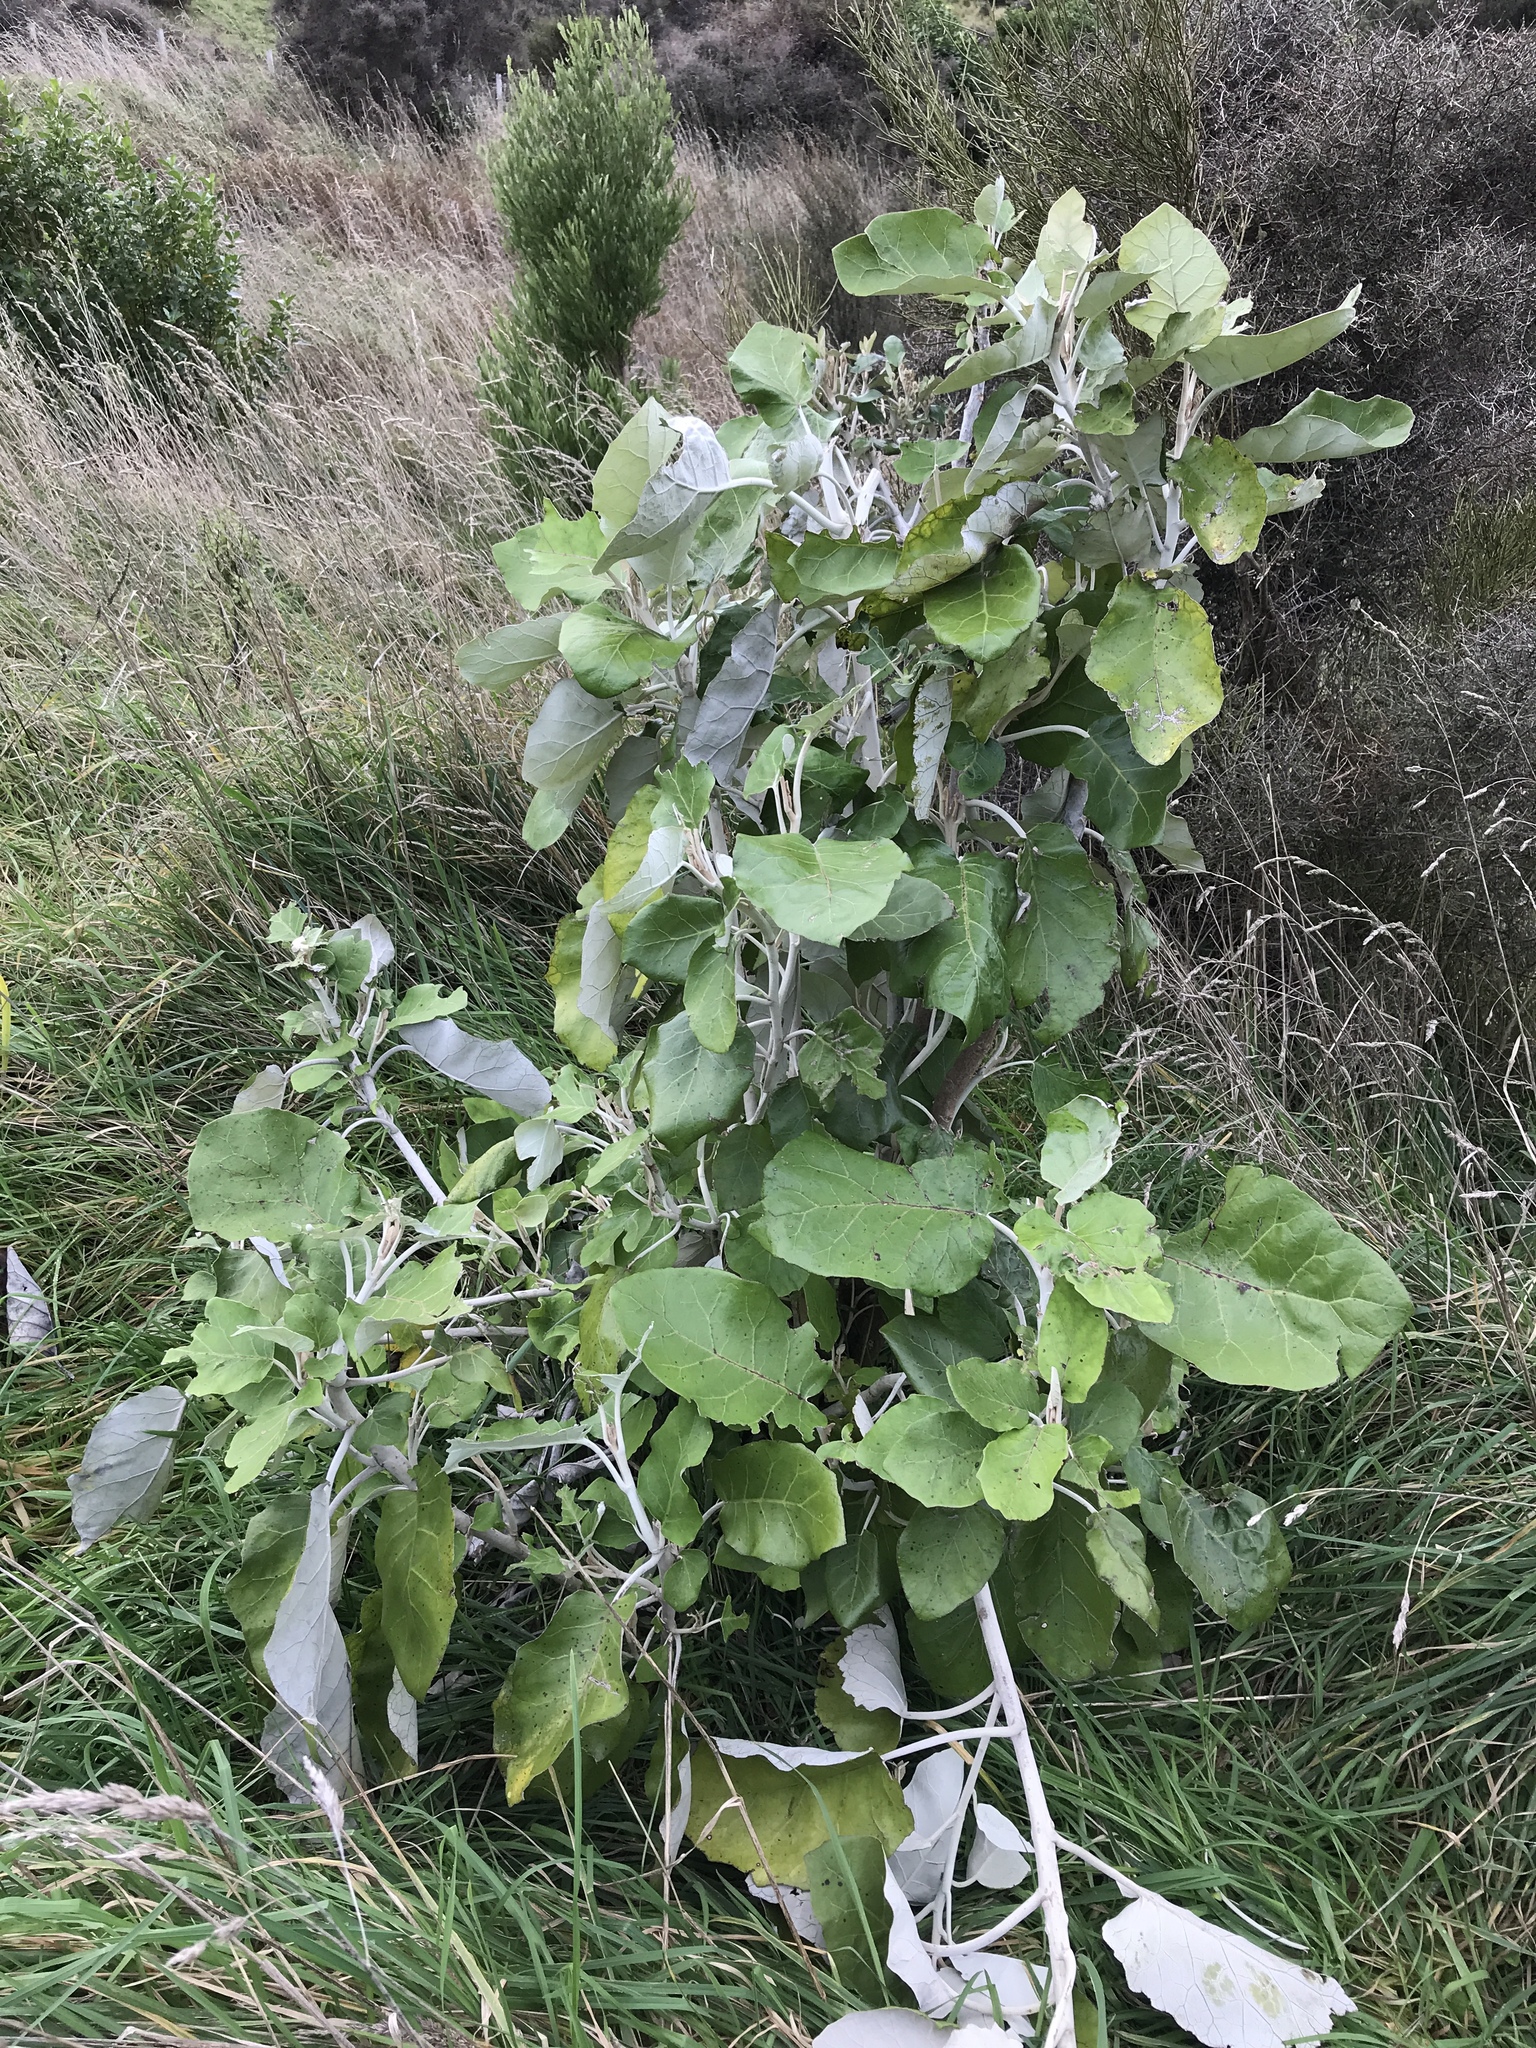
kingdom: Plantae
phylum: Tracheophyta
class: Magnoliopsida
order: Asterales
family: Asteraceae
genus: Brachyglottis
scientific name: Brachyglottis repanda
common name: Hedge ragwort
